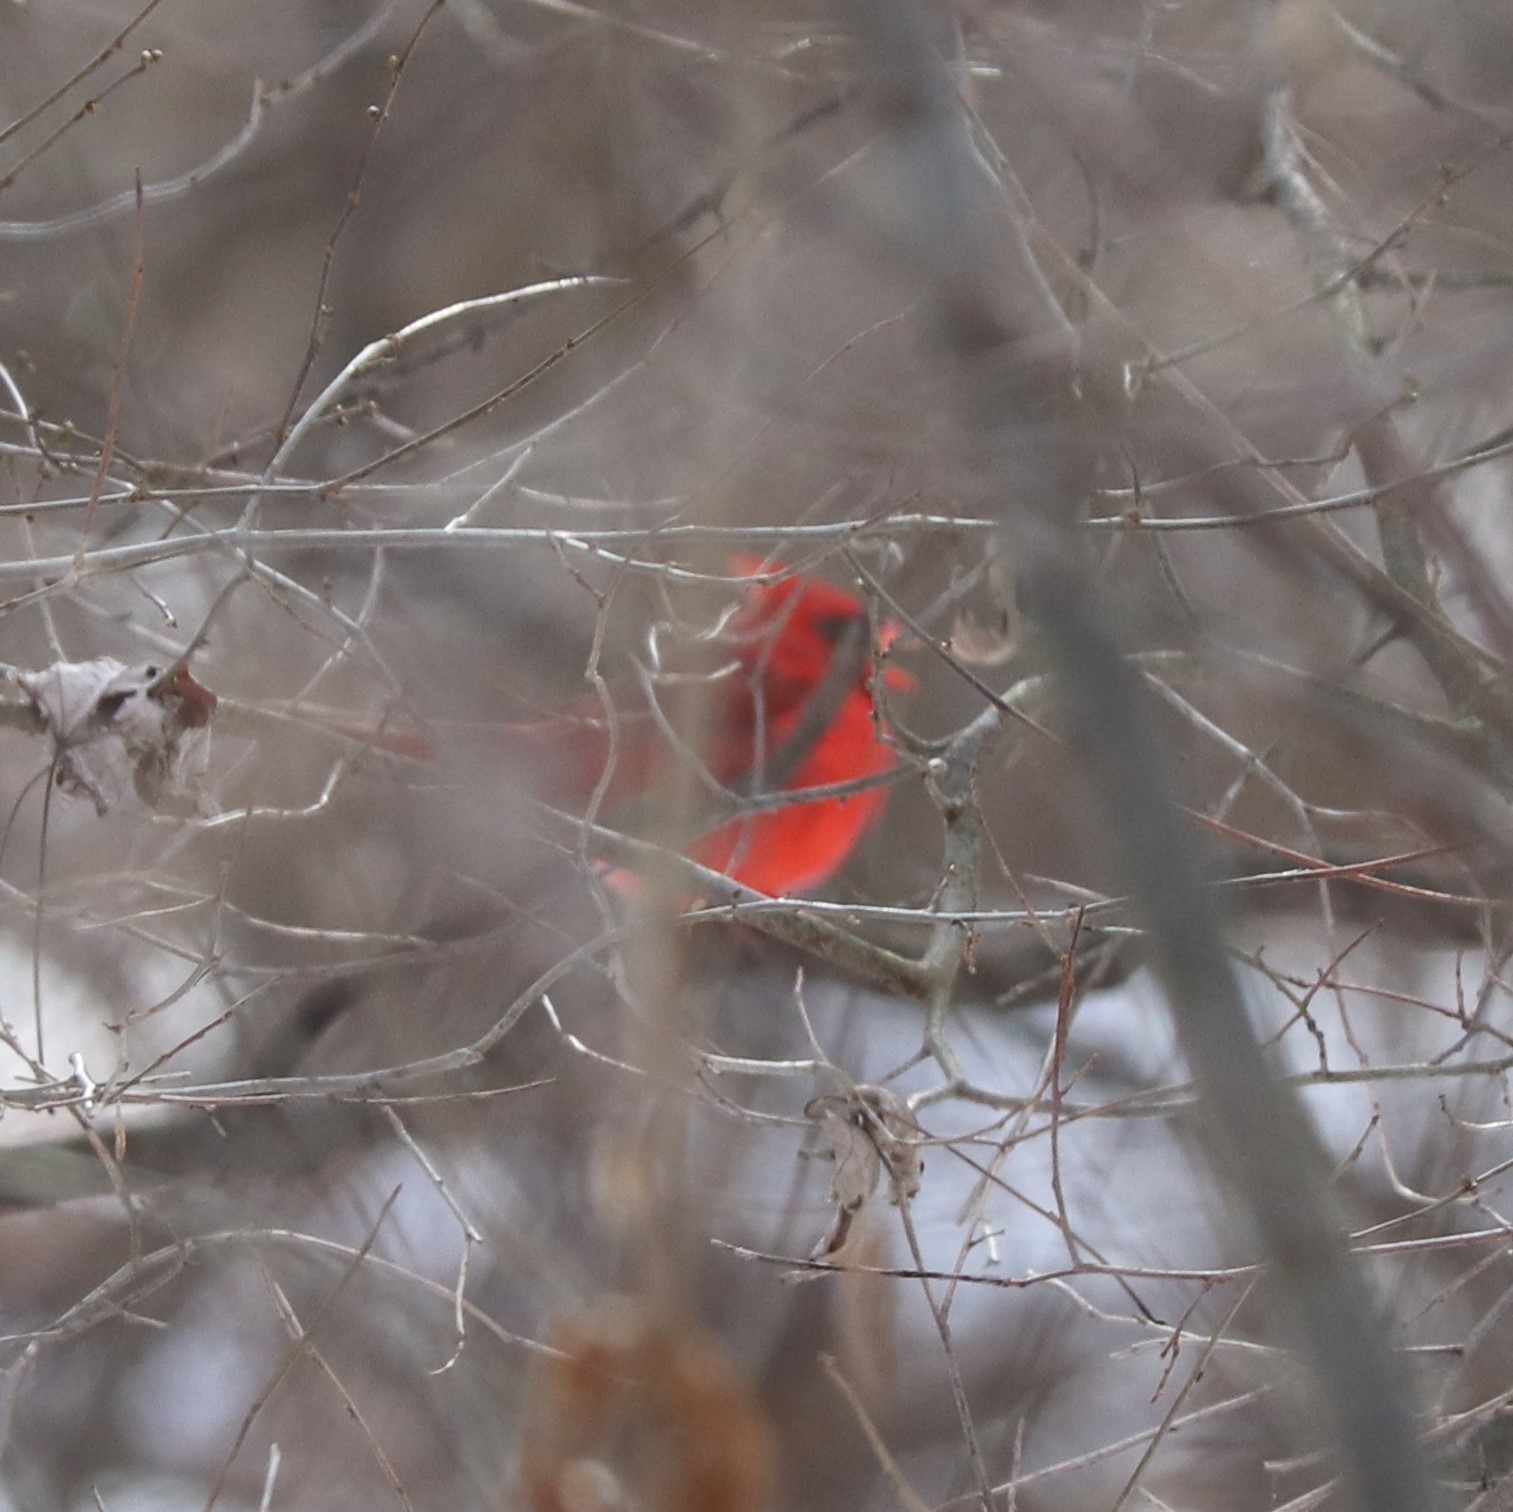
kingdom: Animalia
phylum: Chordata
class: Aves
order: Passeriformes
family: Cardinalidae
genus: Cardinalis
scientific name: Cardinalis cardinalis
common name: Northern cardinal
